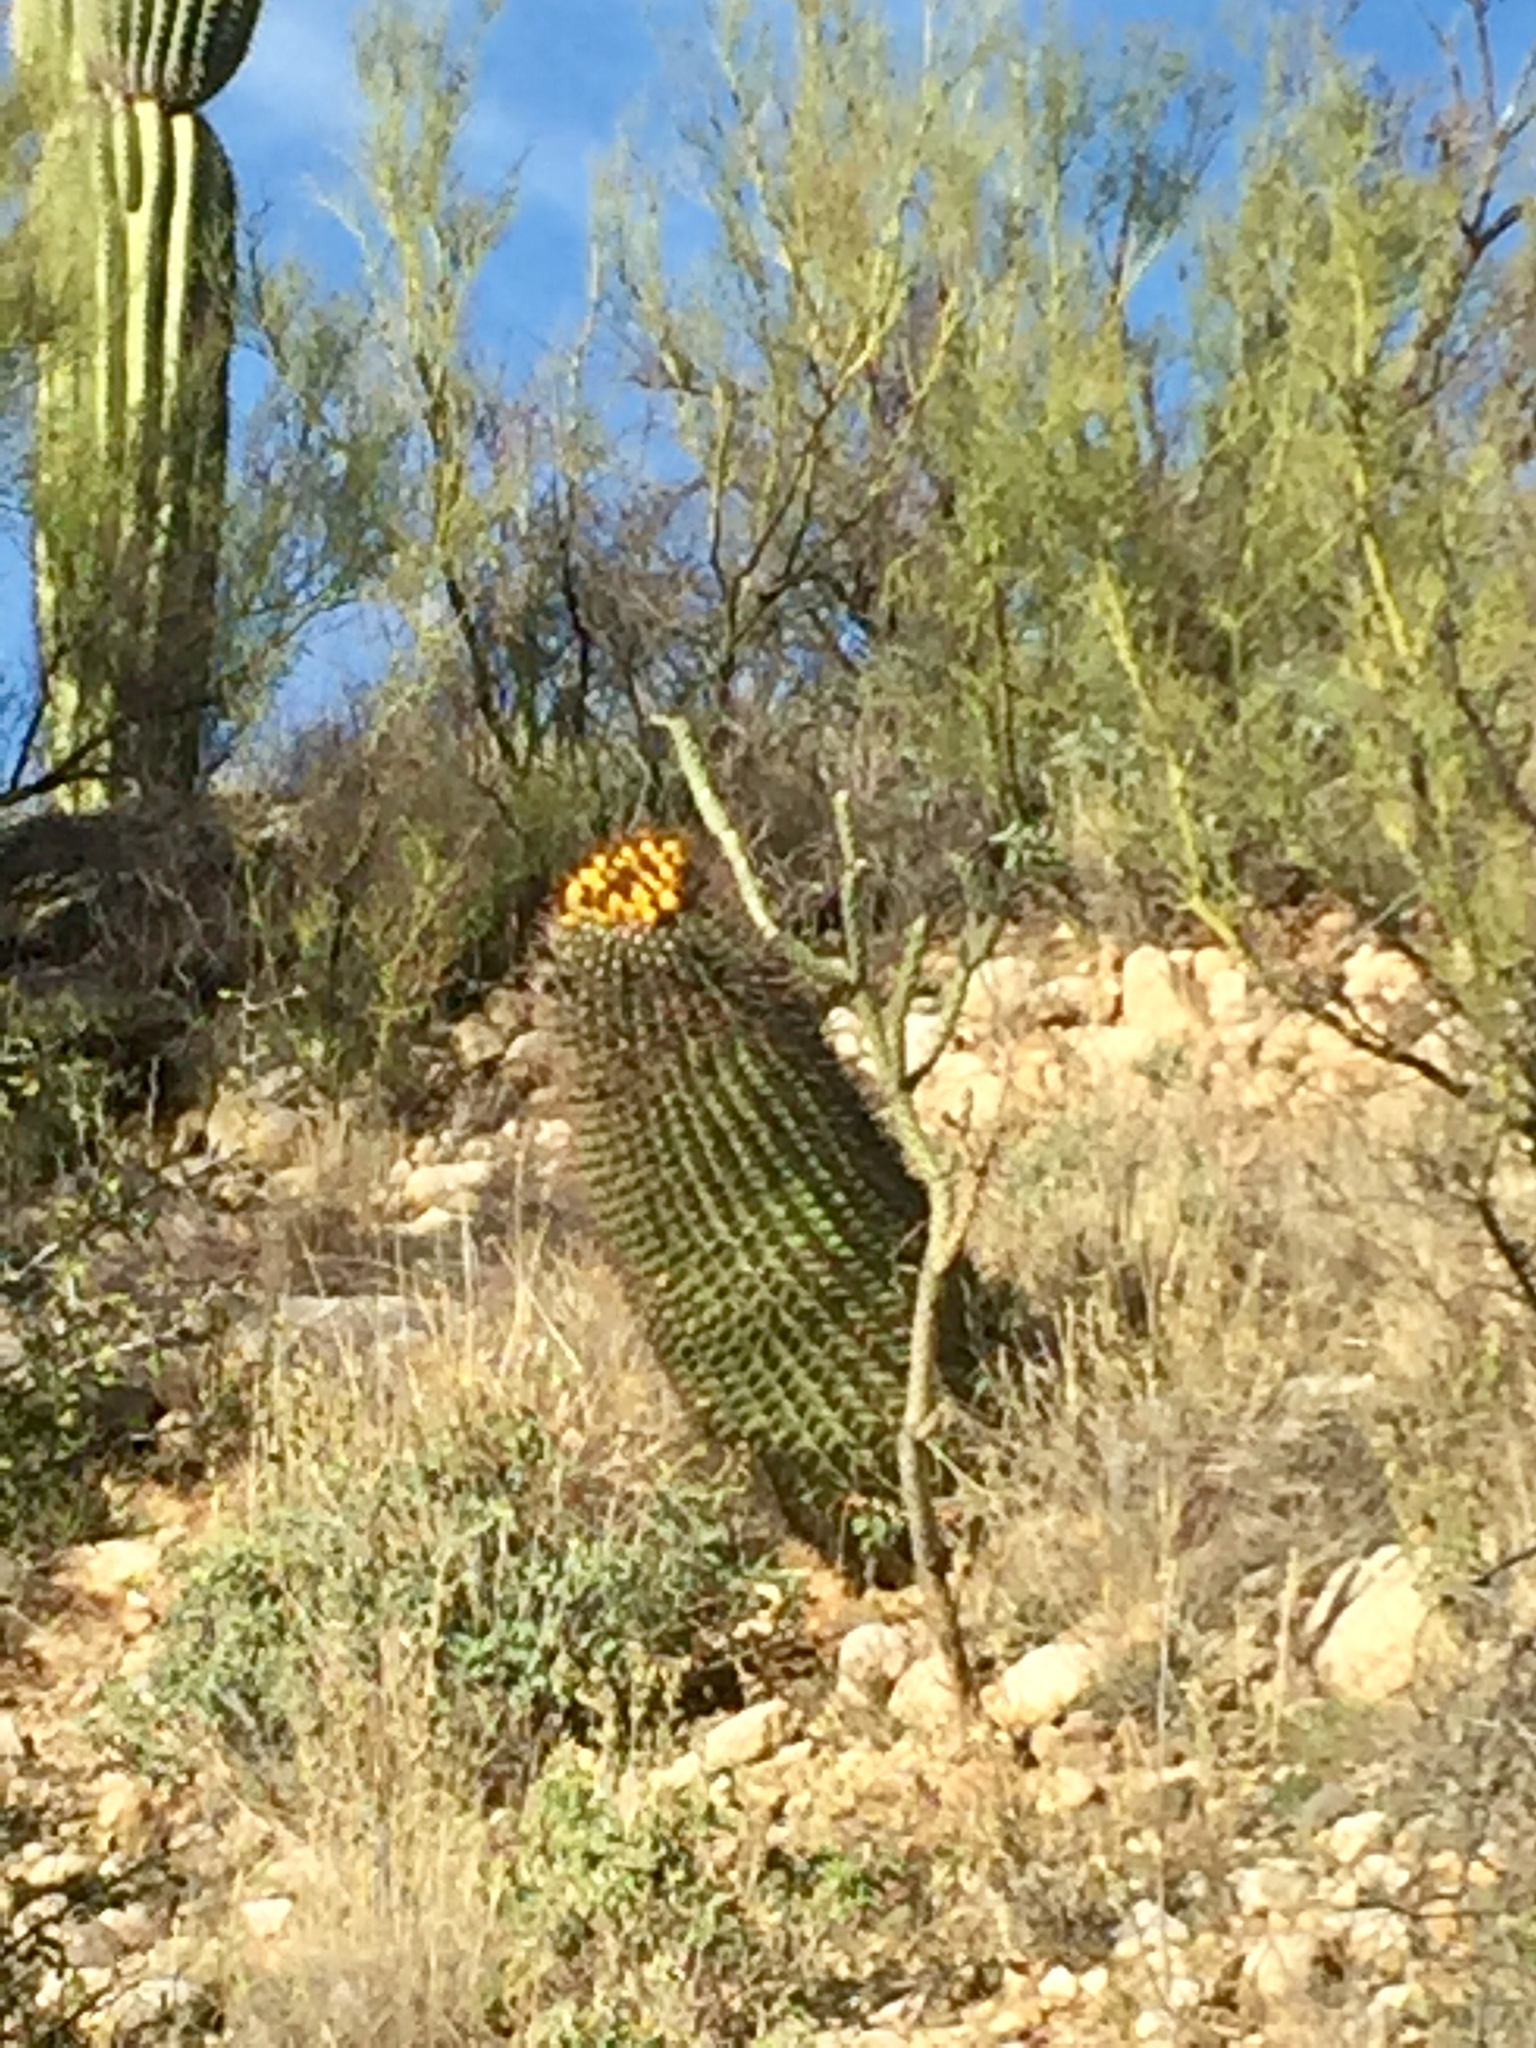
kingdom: Plantae
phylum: Tracheophyta
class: Magnoliopsida
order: Caryophyllales
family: Cactaceae
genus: Ferocactus
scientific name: Ferocactus wislizeni
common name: Candy barrel cactus
